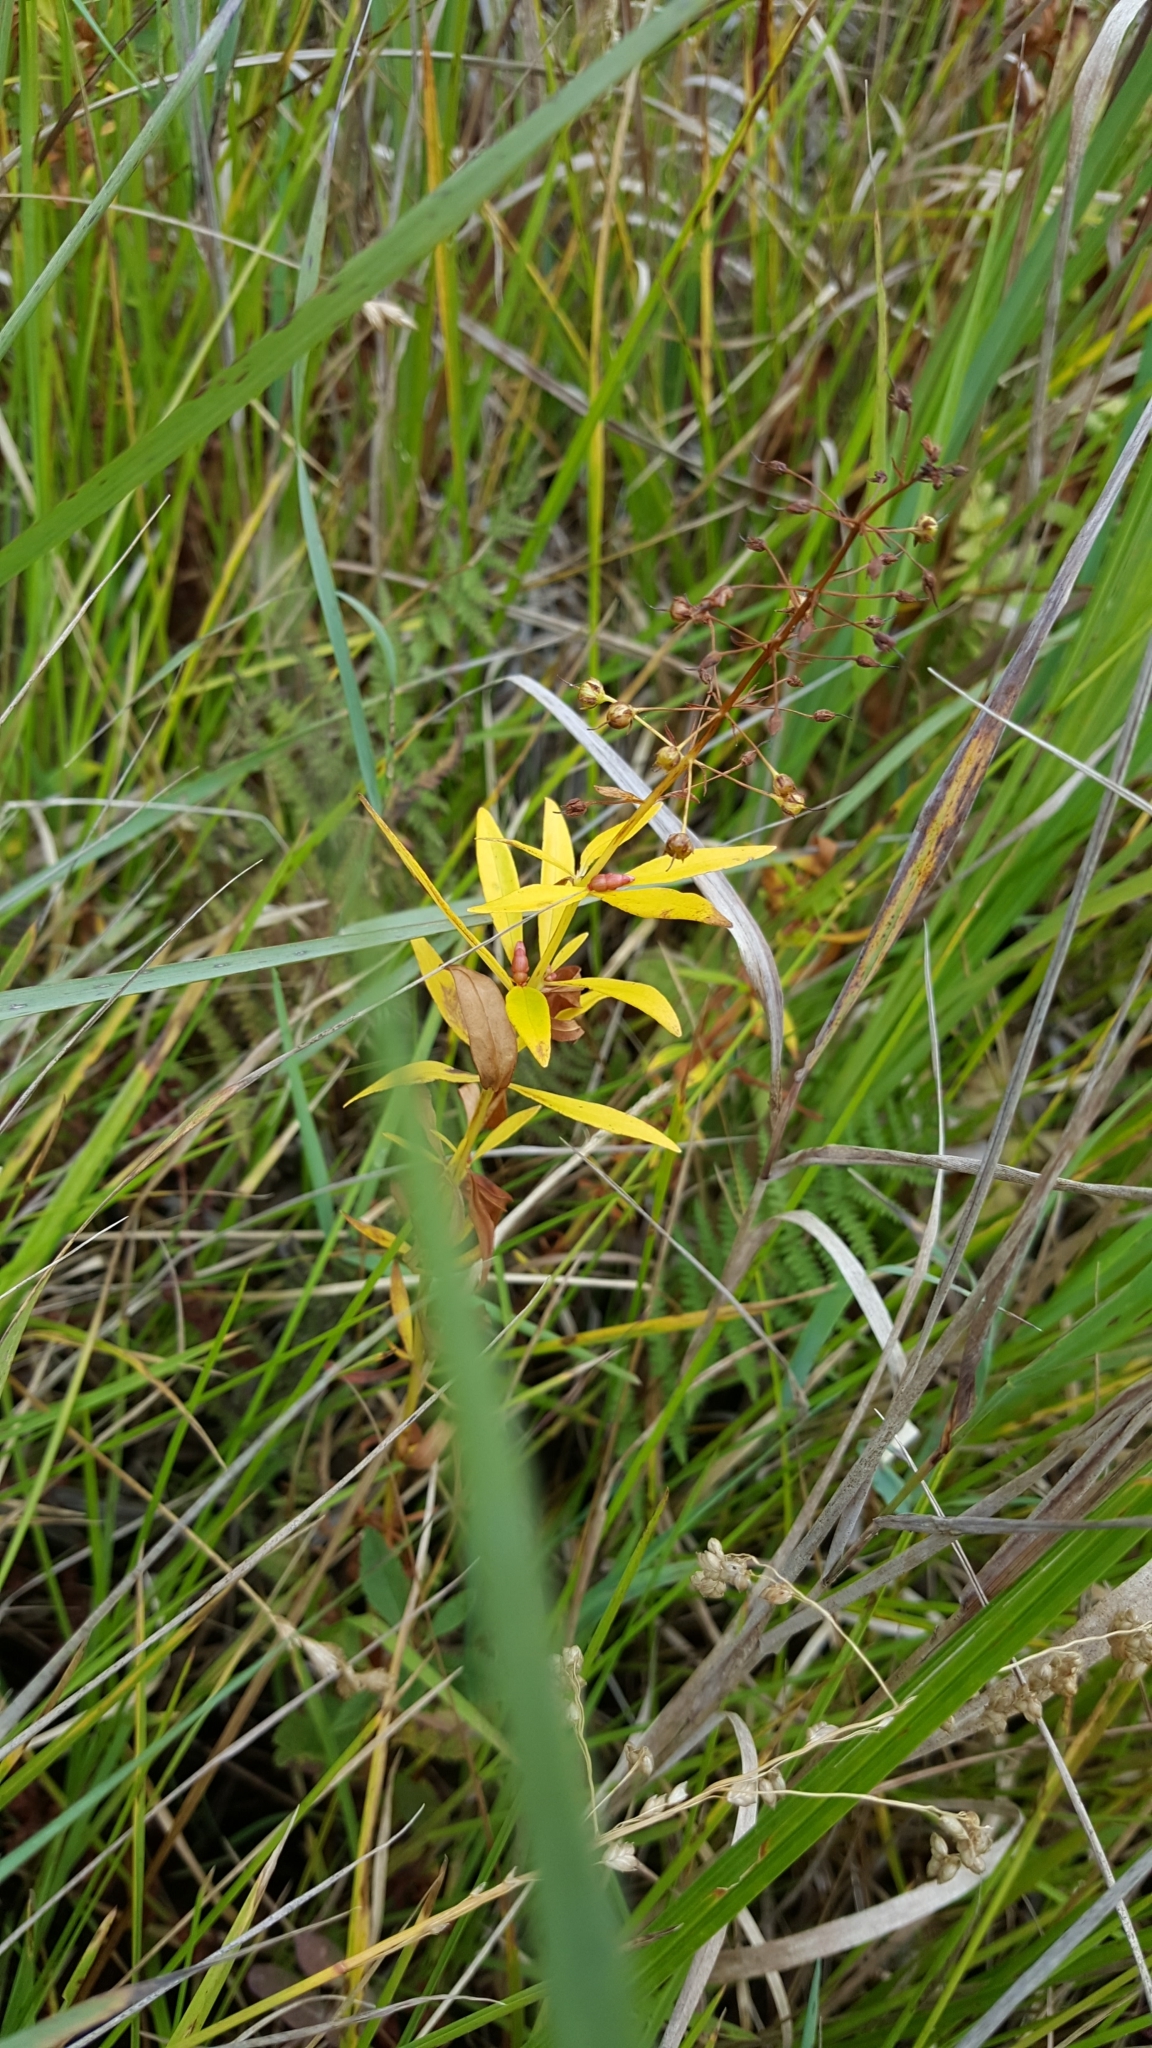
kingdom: Plantae
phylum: Tracheophyta
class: Magnoliopsida
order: Ericales
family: Primulaceae
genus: Lysimachia
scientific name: Lysimachia terrestris
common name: Lake loosestrife
